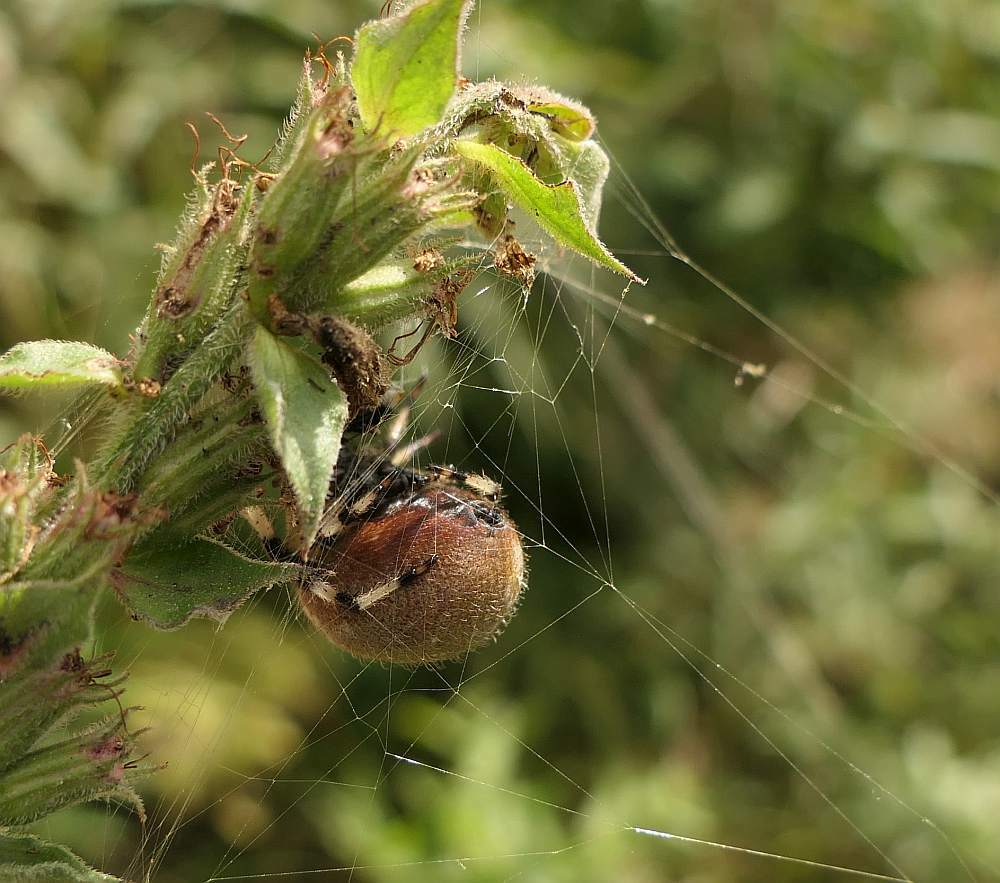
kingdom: Animalia
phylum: Arthropoda
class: Arachnida
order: Araneae
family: Araneidae
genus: Araneus
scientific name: Araneus trifolium
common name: Shamrock orbweaver
